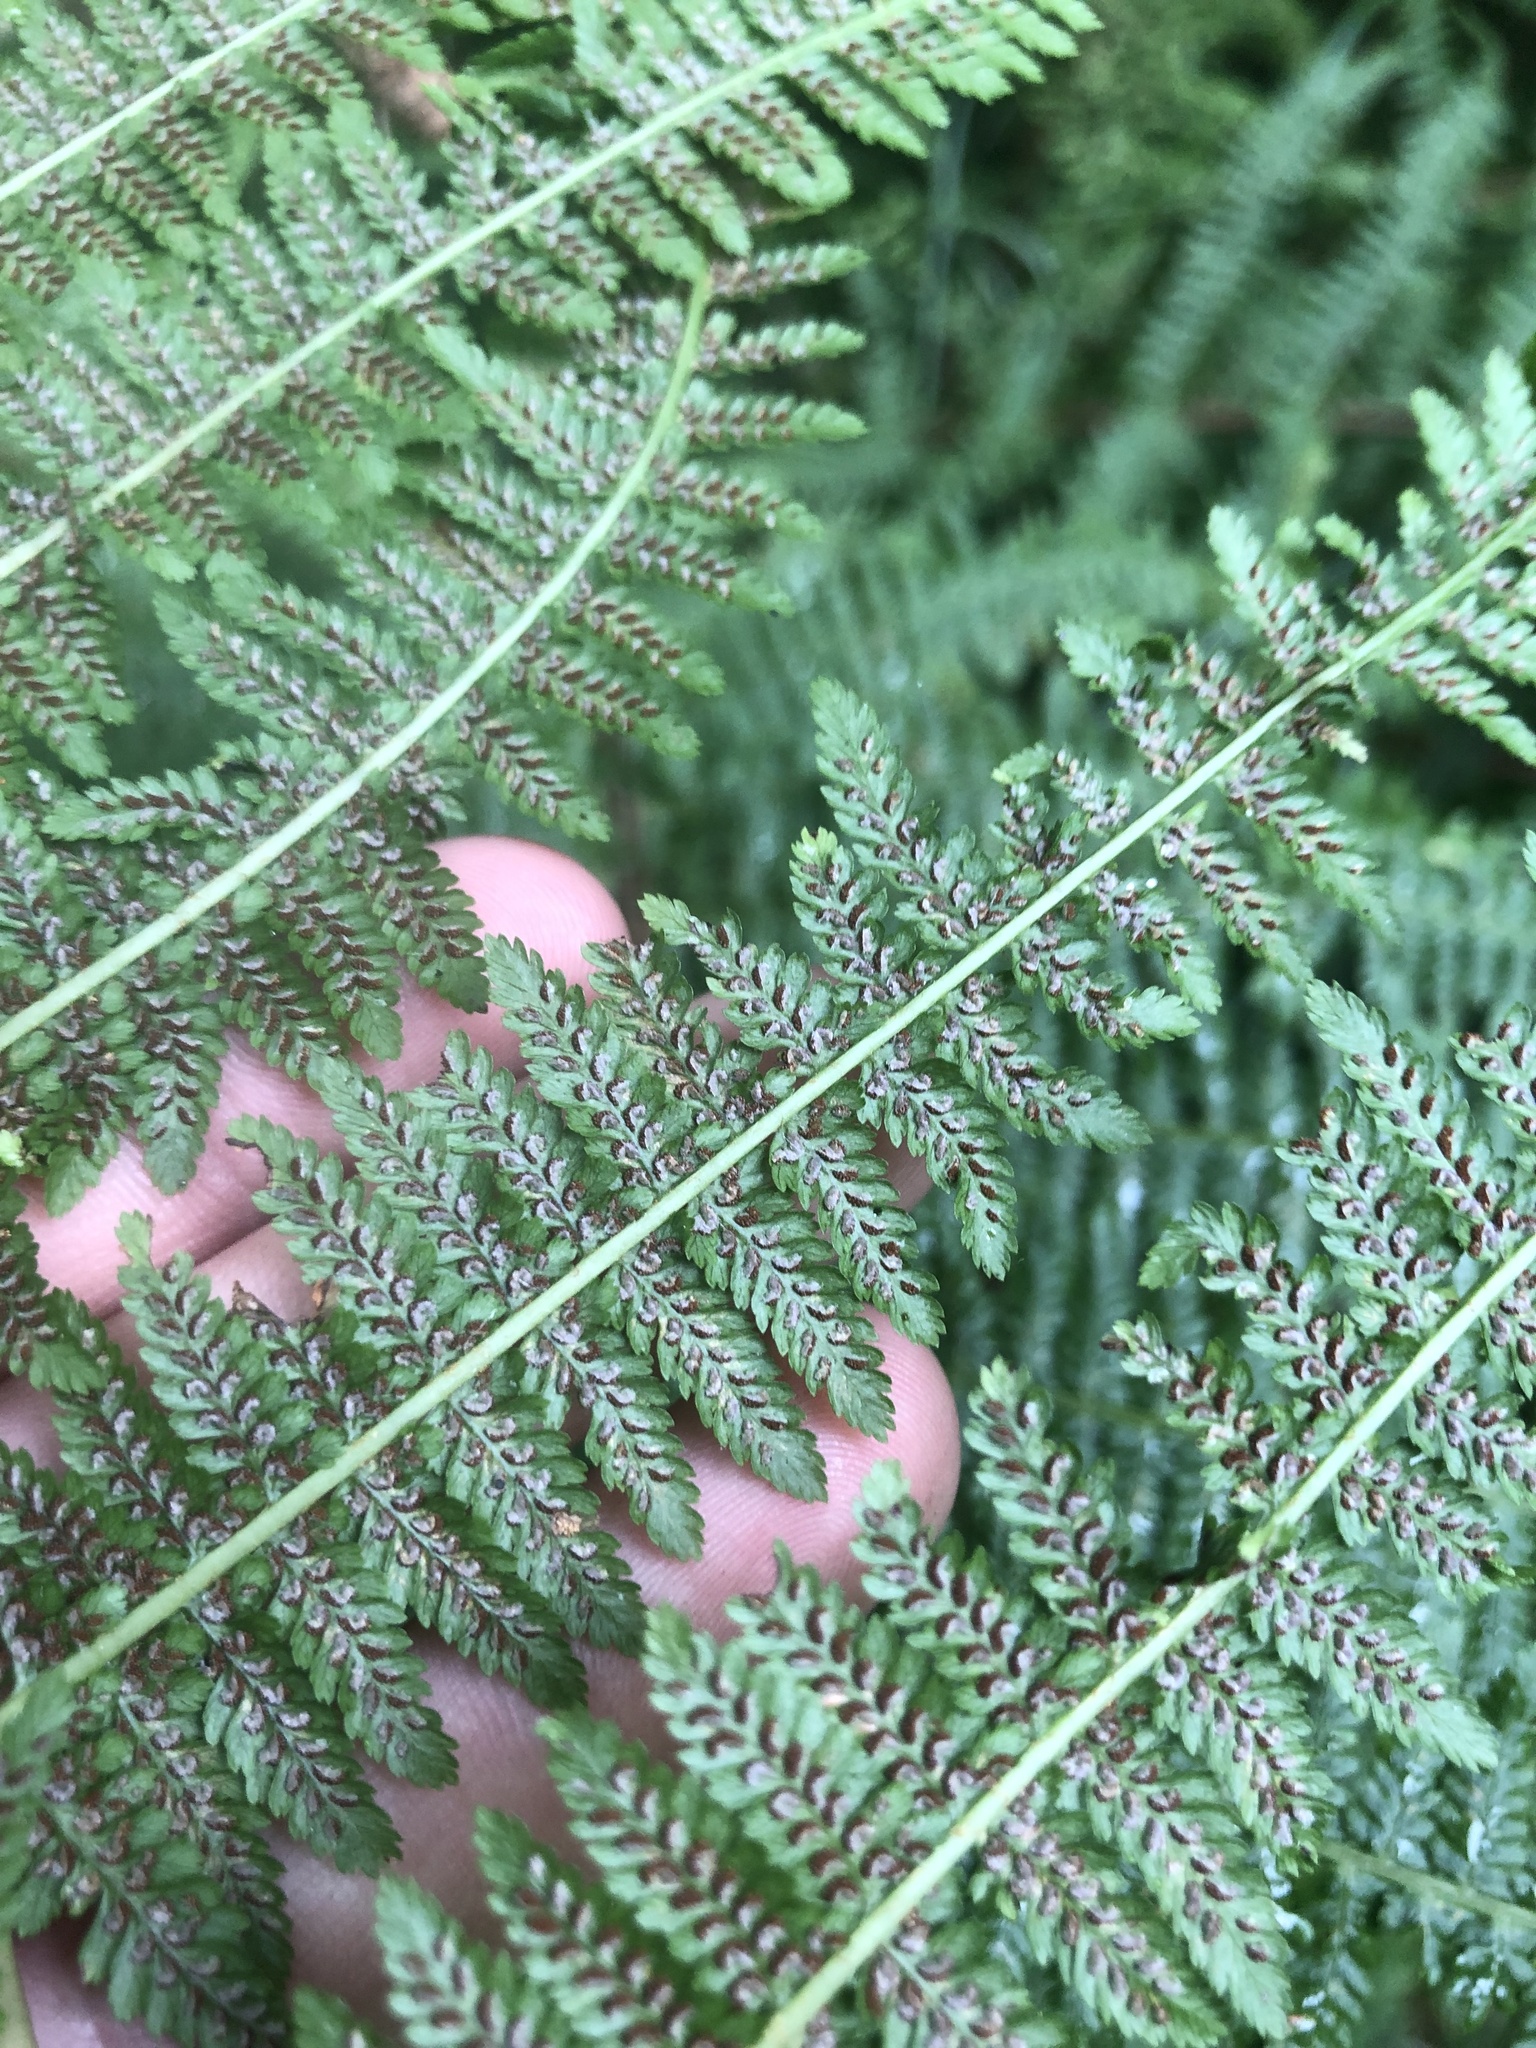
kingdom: Plantae
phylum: Tracheophyta
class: Polypodiopsida
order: Polypodiales
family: Athyriaceae
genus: Athyrium
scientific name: Athyrium filix-femina
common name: Lady fern
